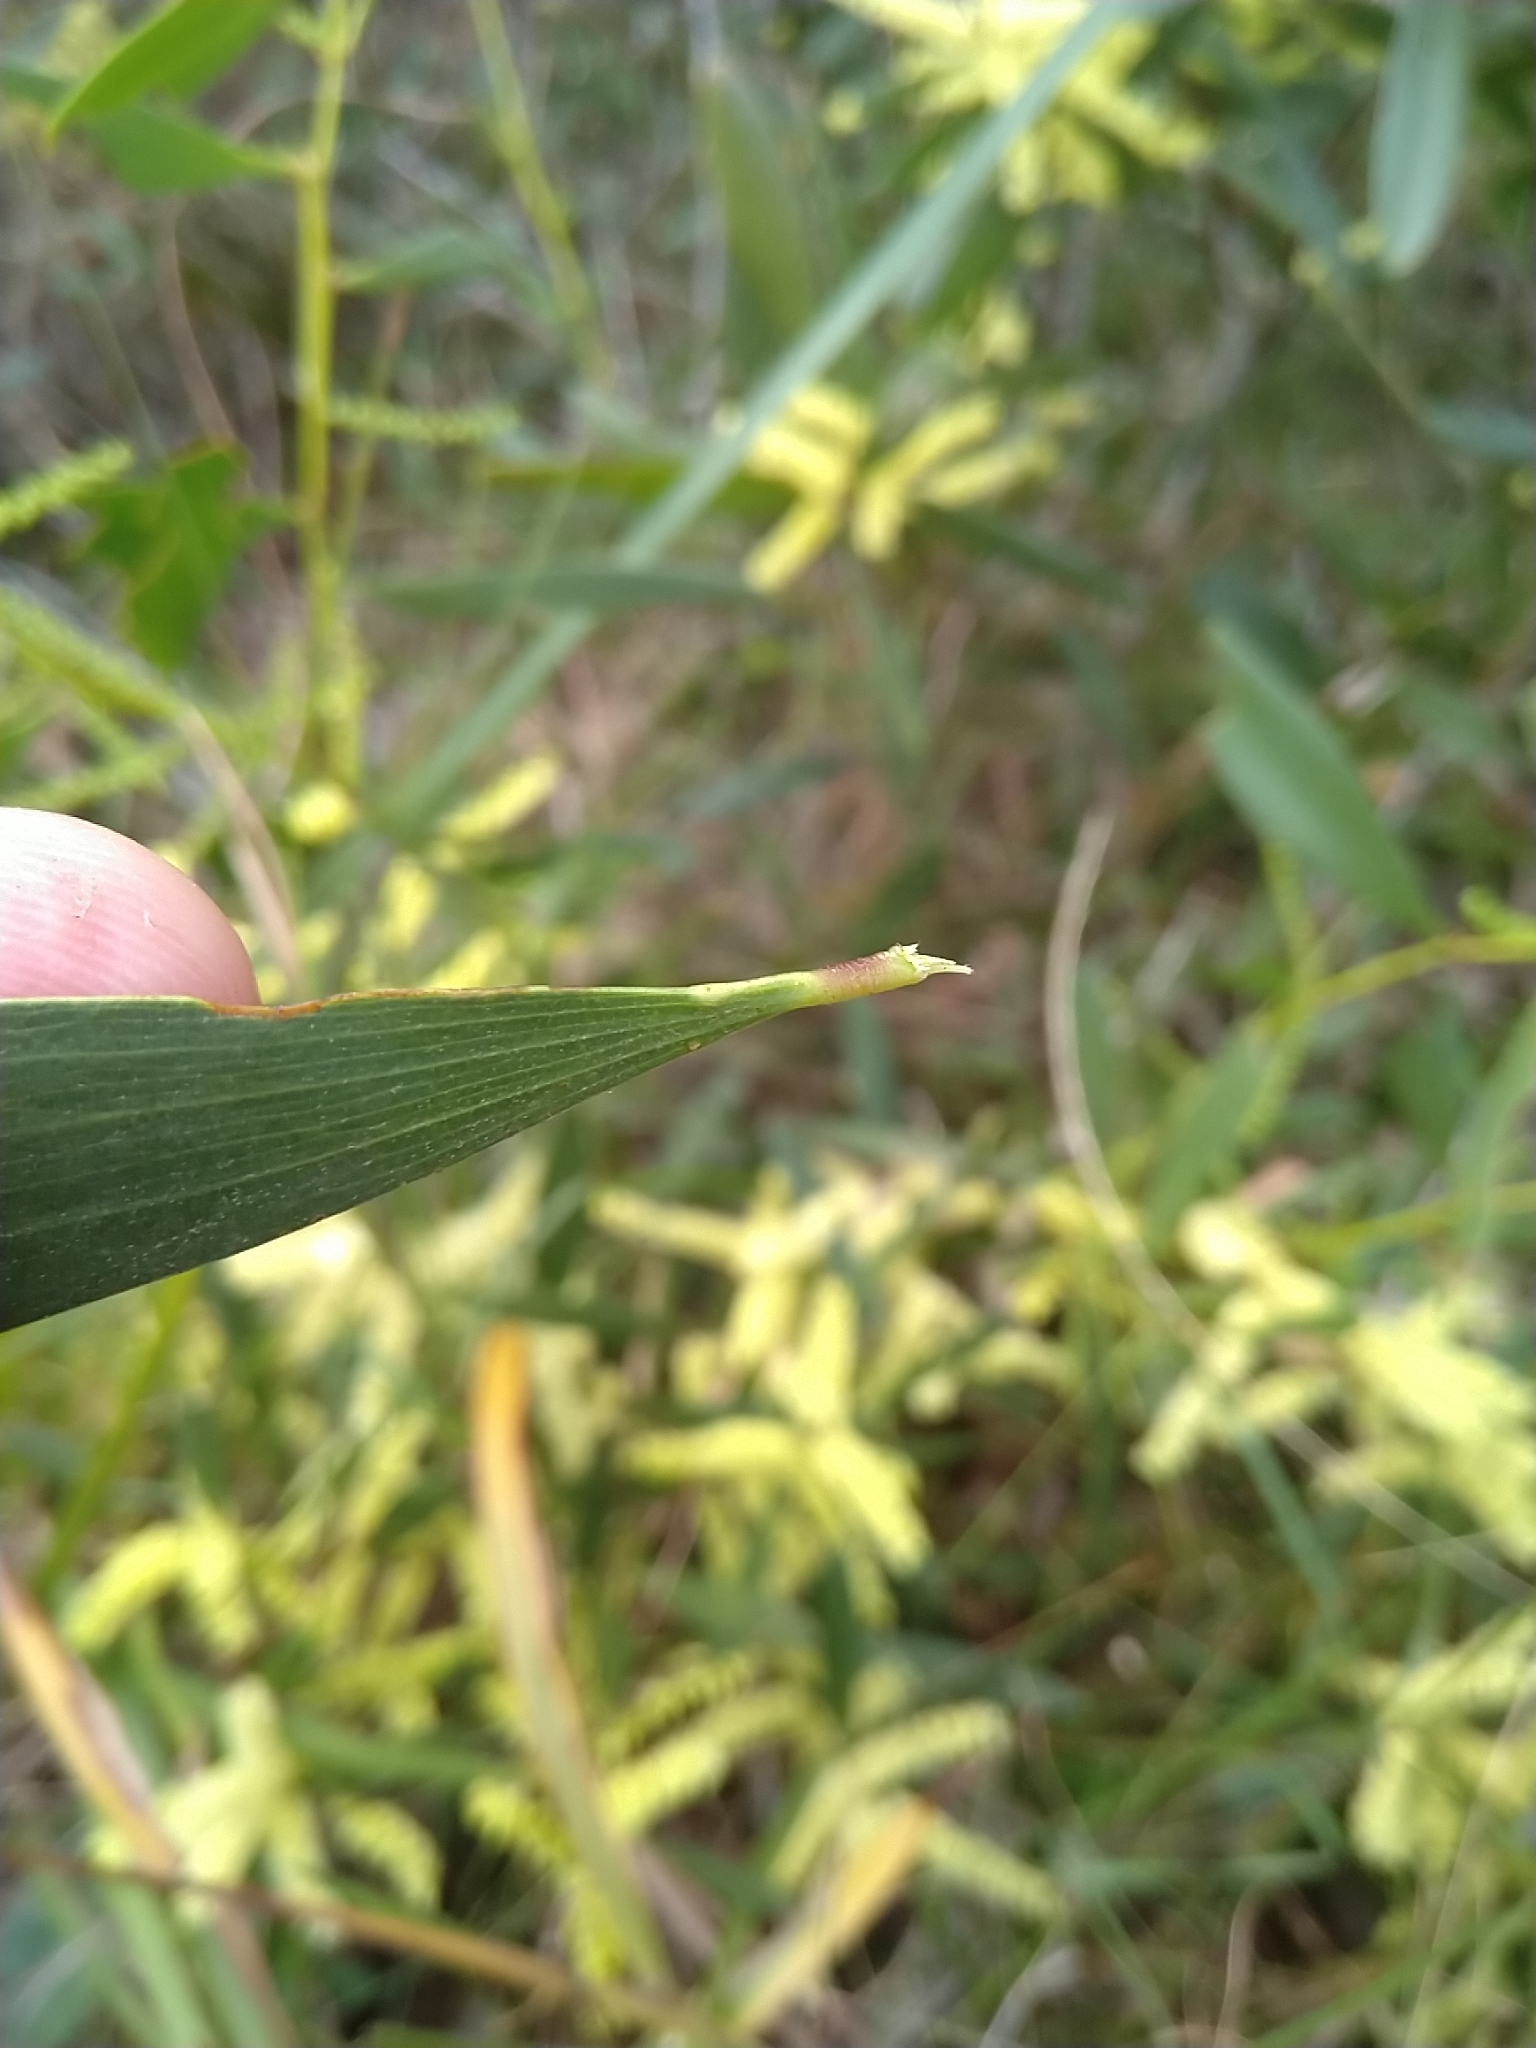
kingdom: Plantae
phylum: Tracheophyta
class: Magnoliopsida
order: Fabales
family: Fabaceae
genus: Acacia
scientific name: Acacia longifolia
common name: Sydney golden wattle
